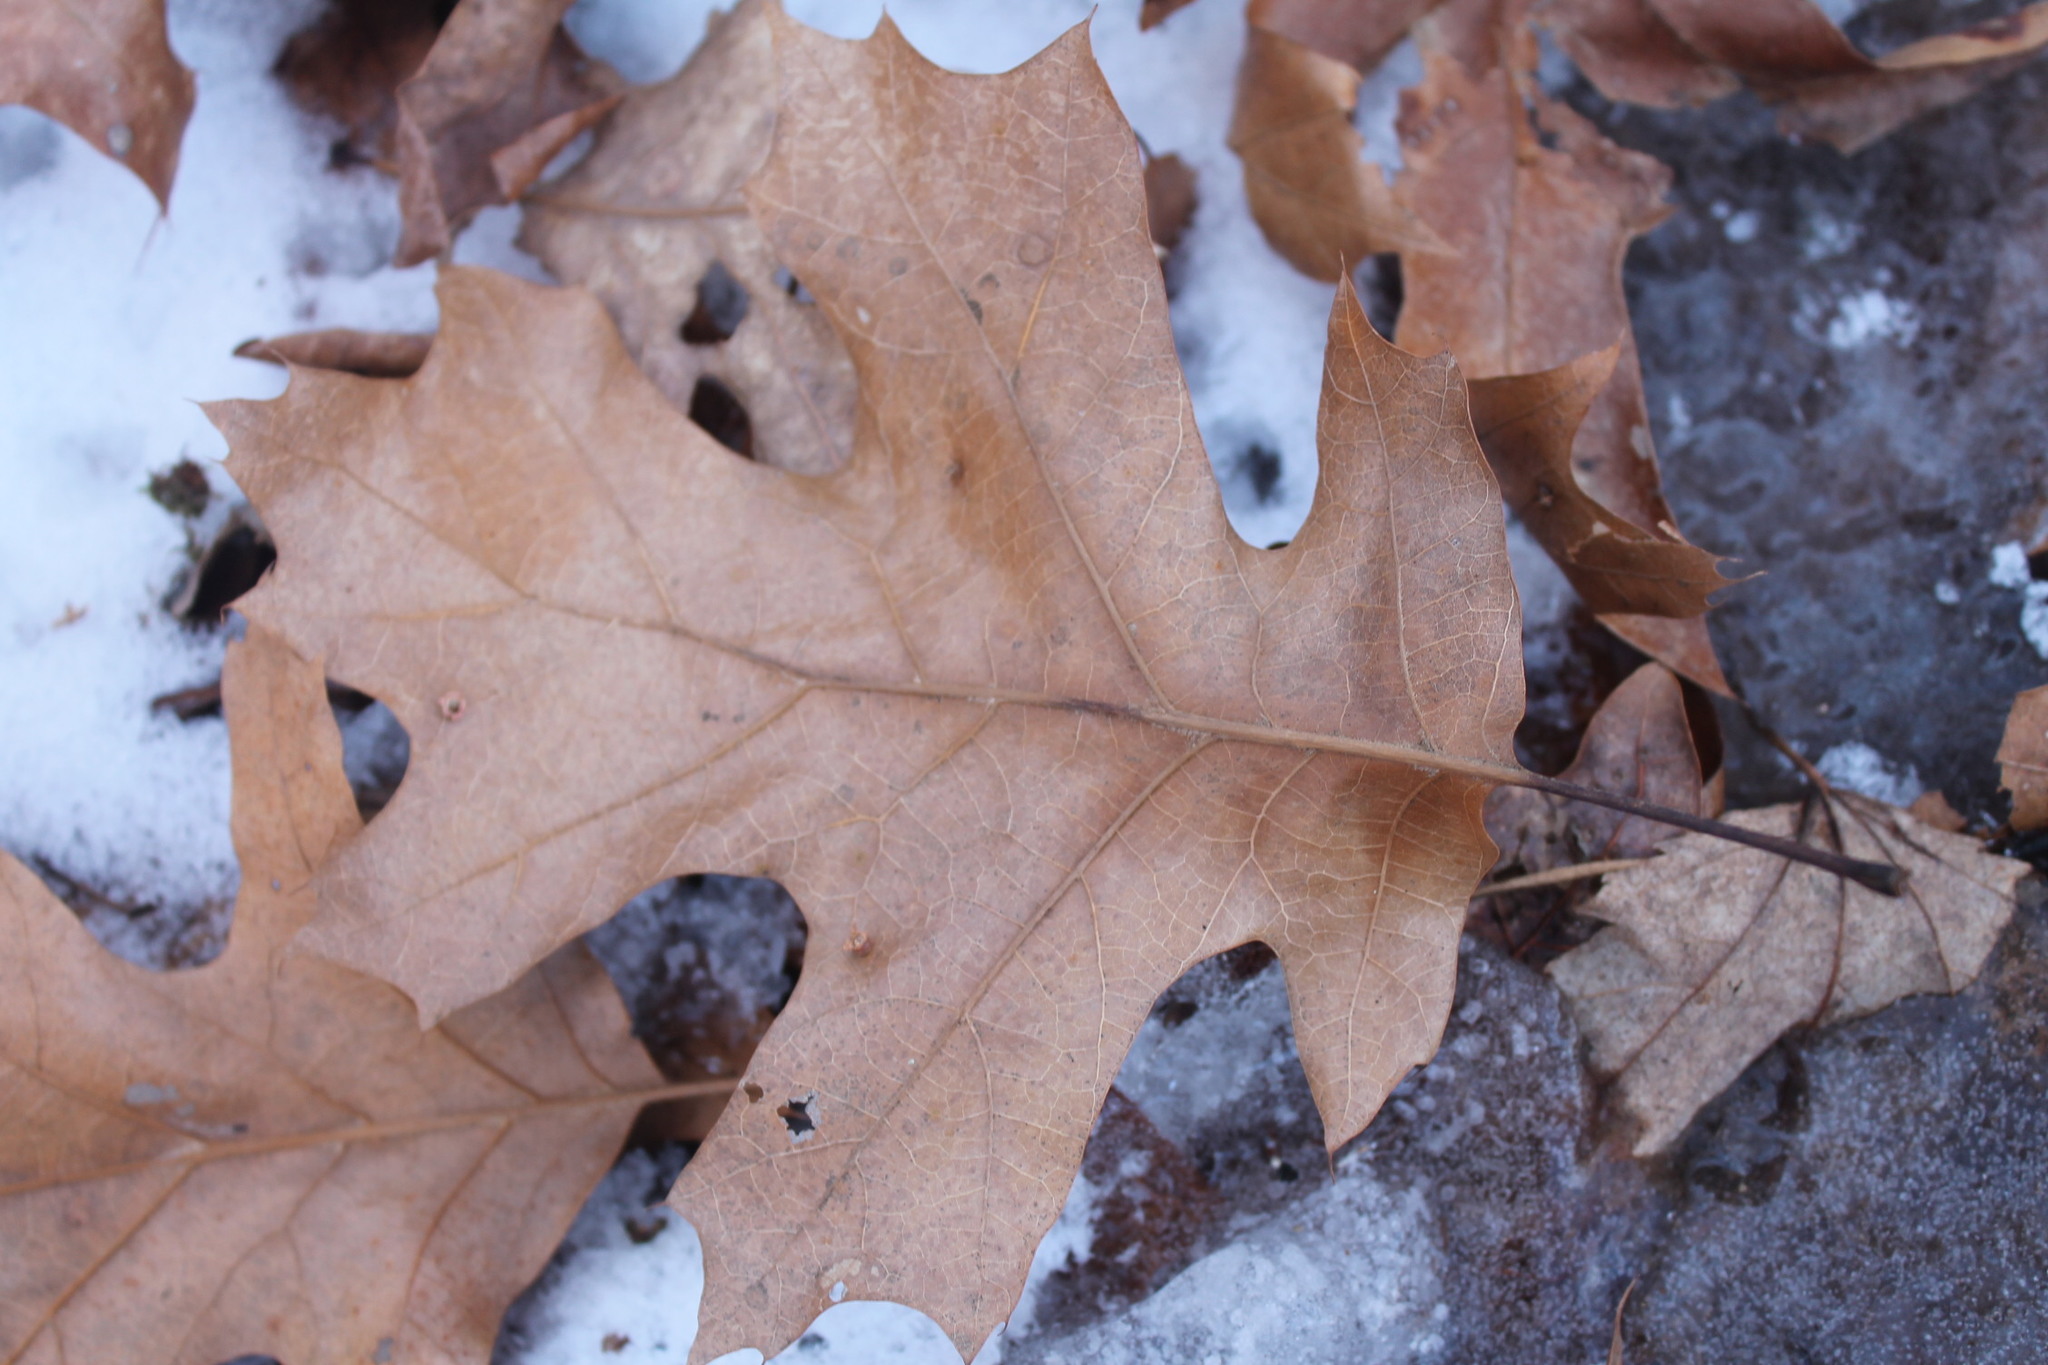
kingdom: Plantae
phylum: Tracheophyta
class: Magnoliopsida
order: Fagales
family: Fagaceae
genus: Quercus
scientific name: Quercus rubra
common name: Red oak
